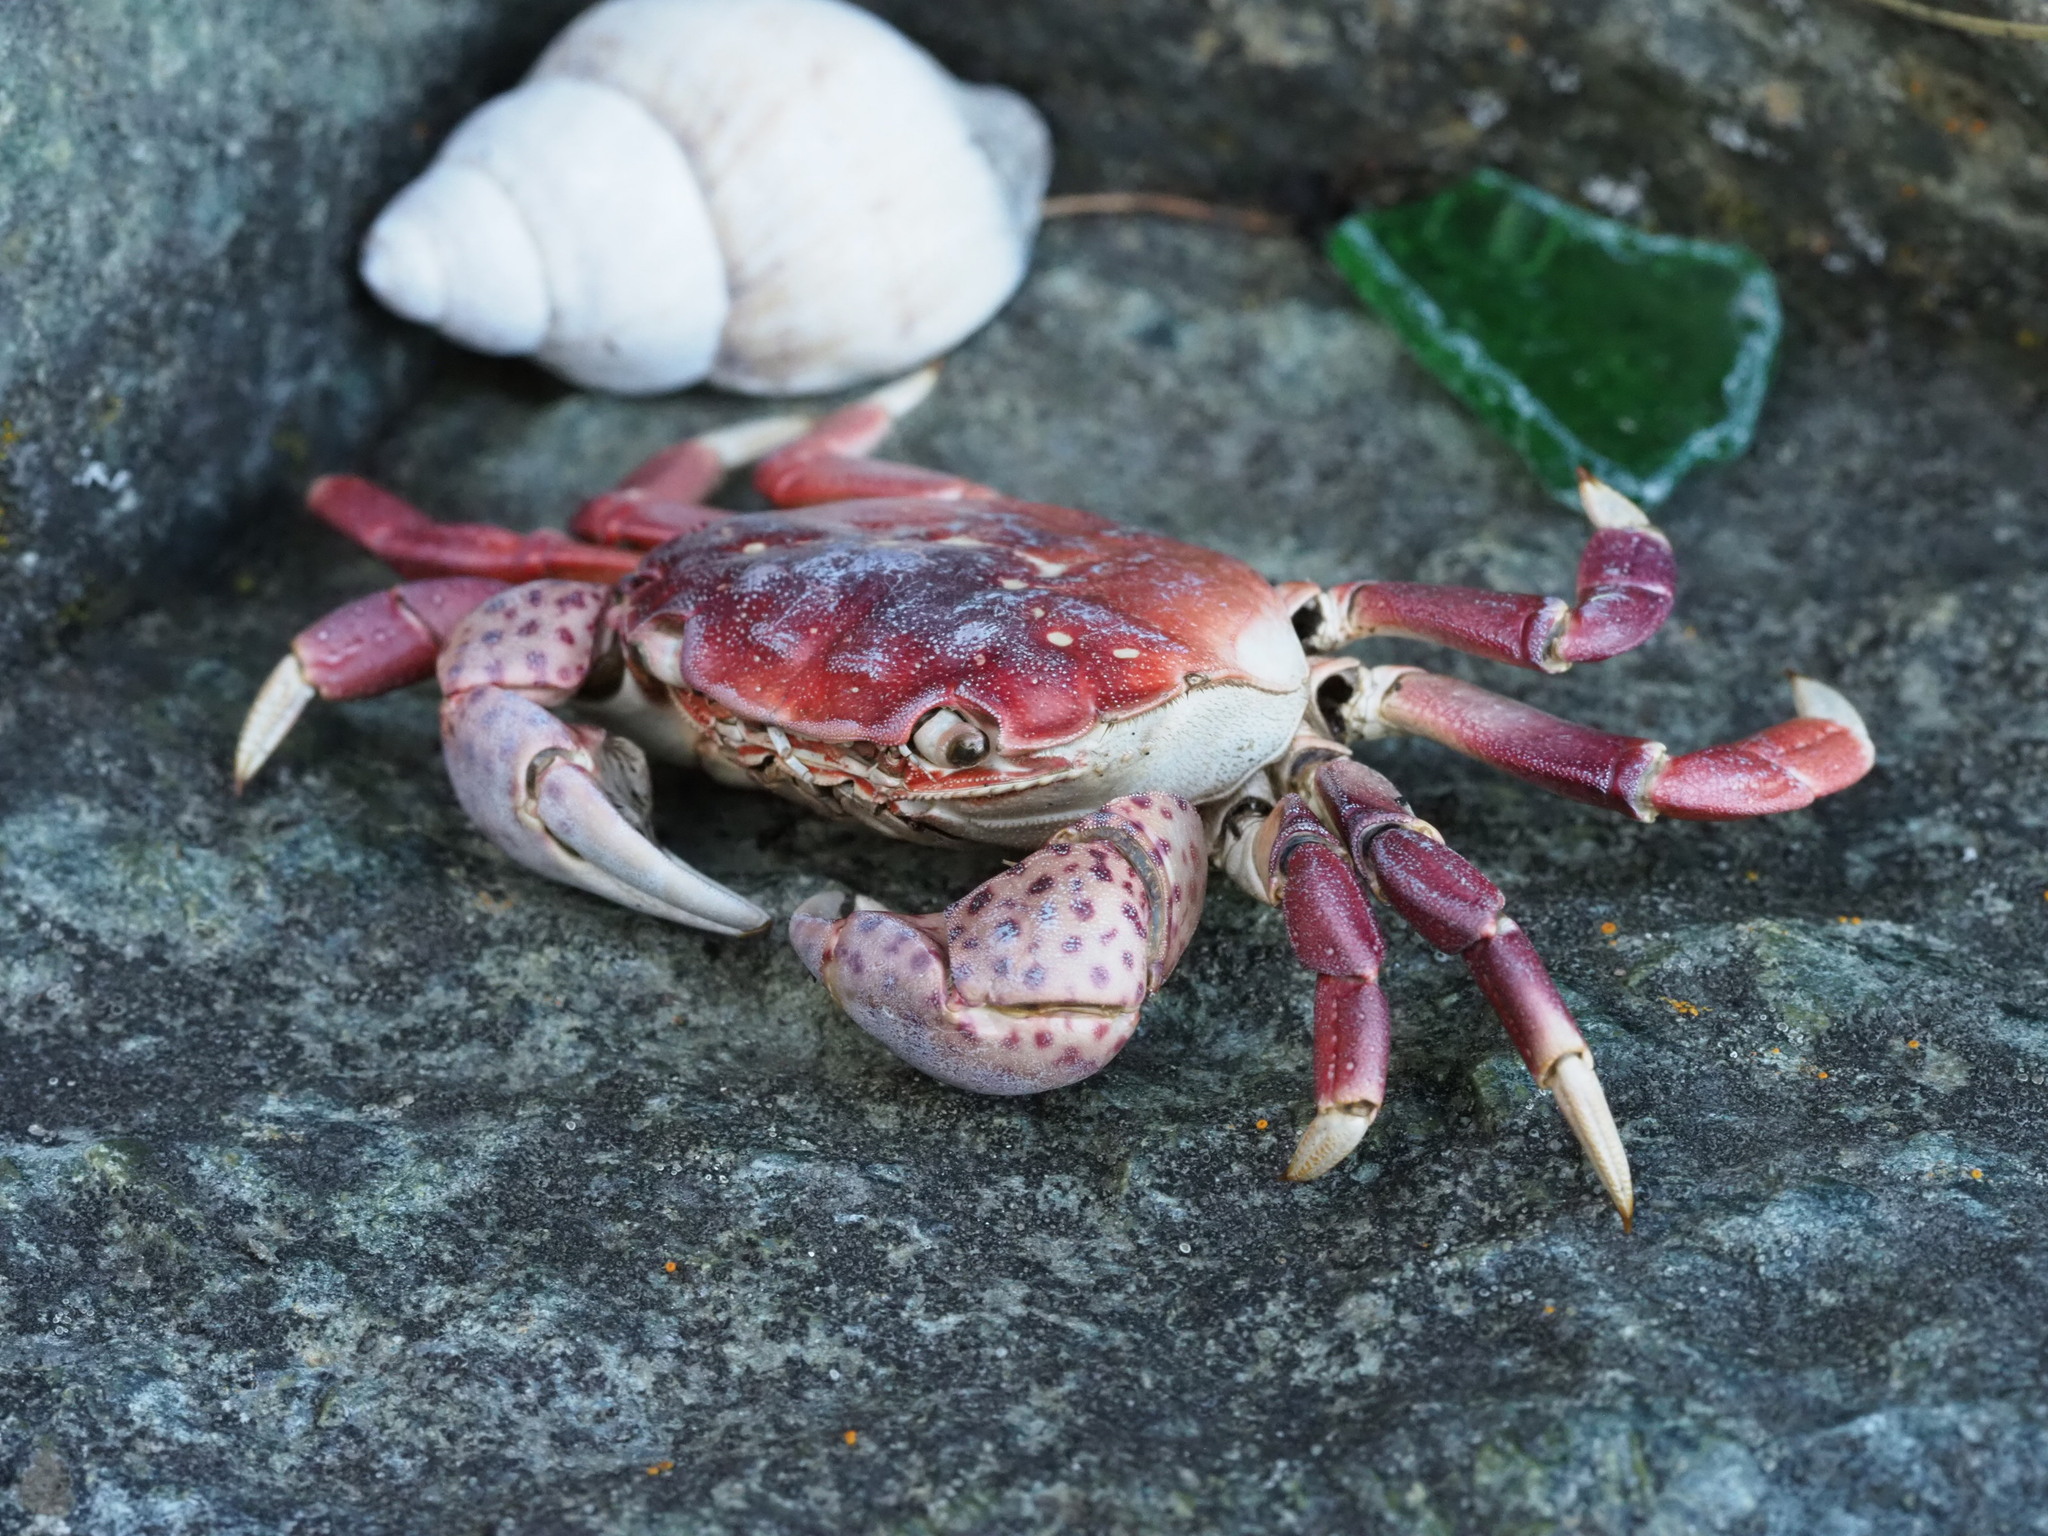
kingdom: Animalia
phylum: Arthropoda
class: Malacostraca
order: Decapoda
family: Varunidae
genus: Hemigrapsus
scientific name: Hemigrapsus nudus
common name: Purple shore crab
